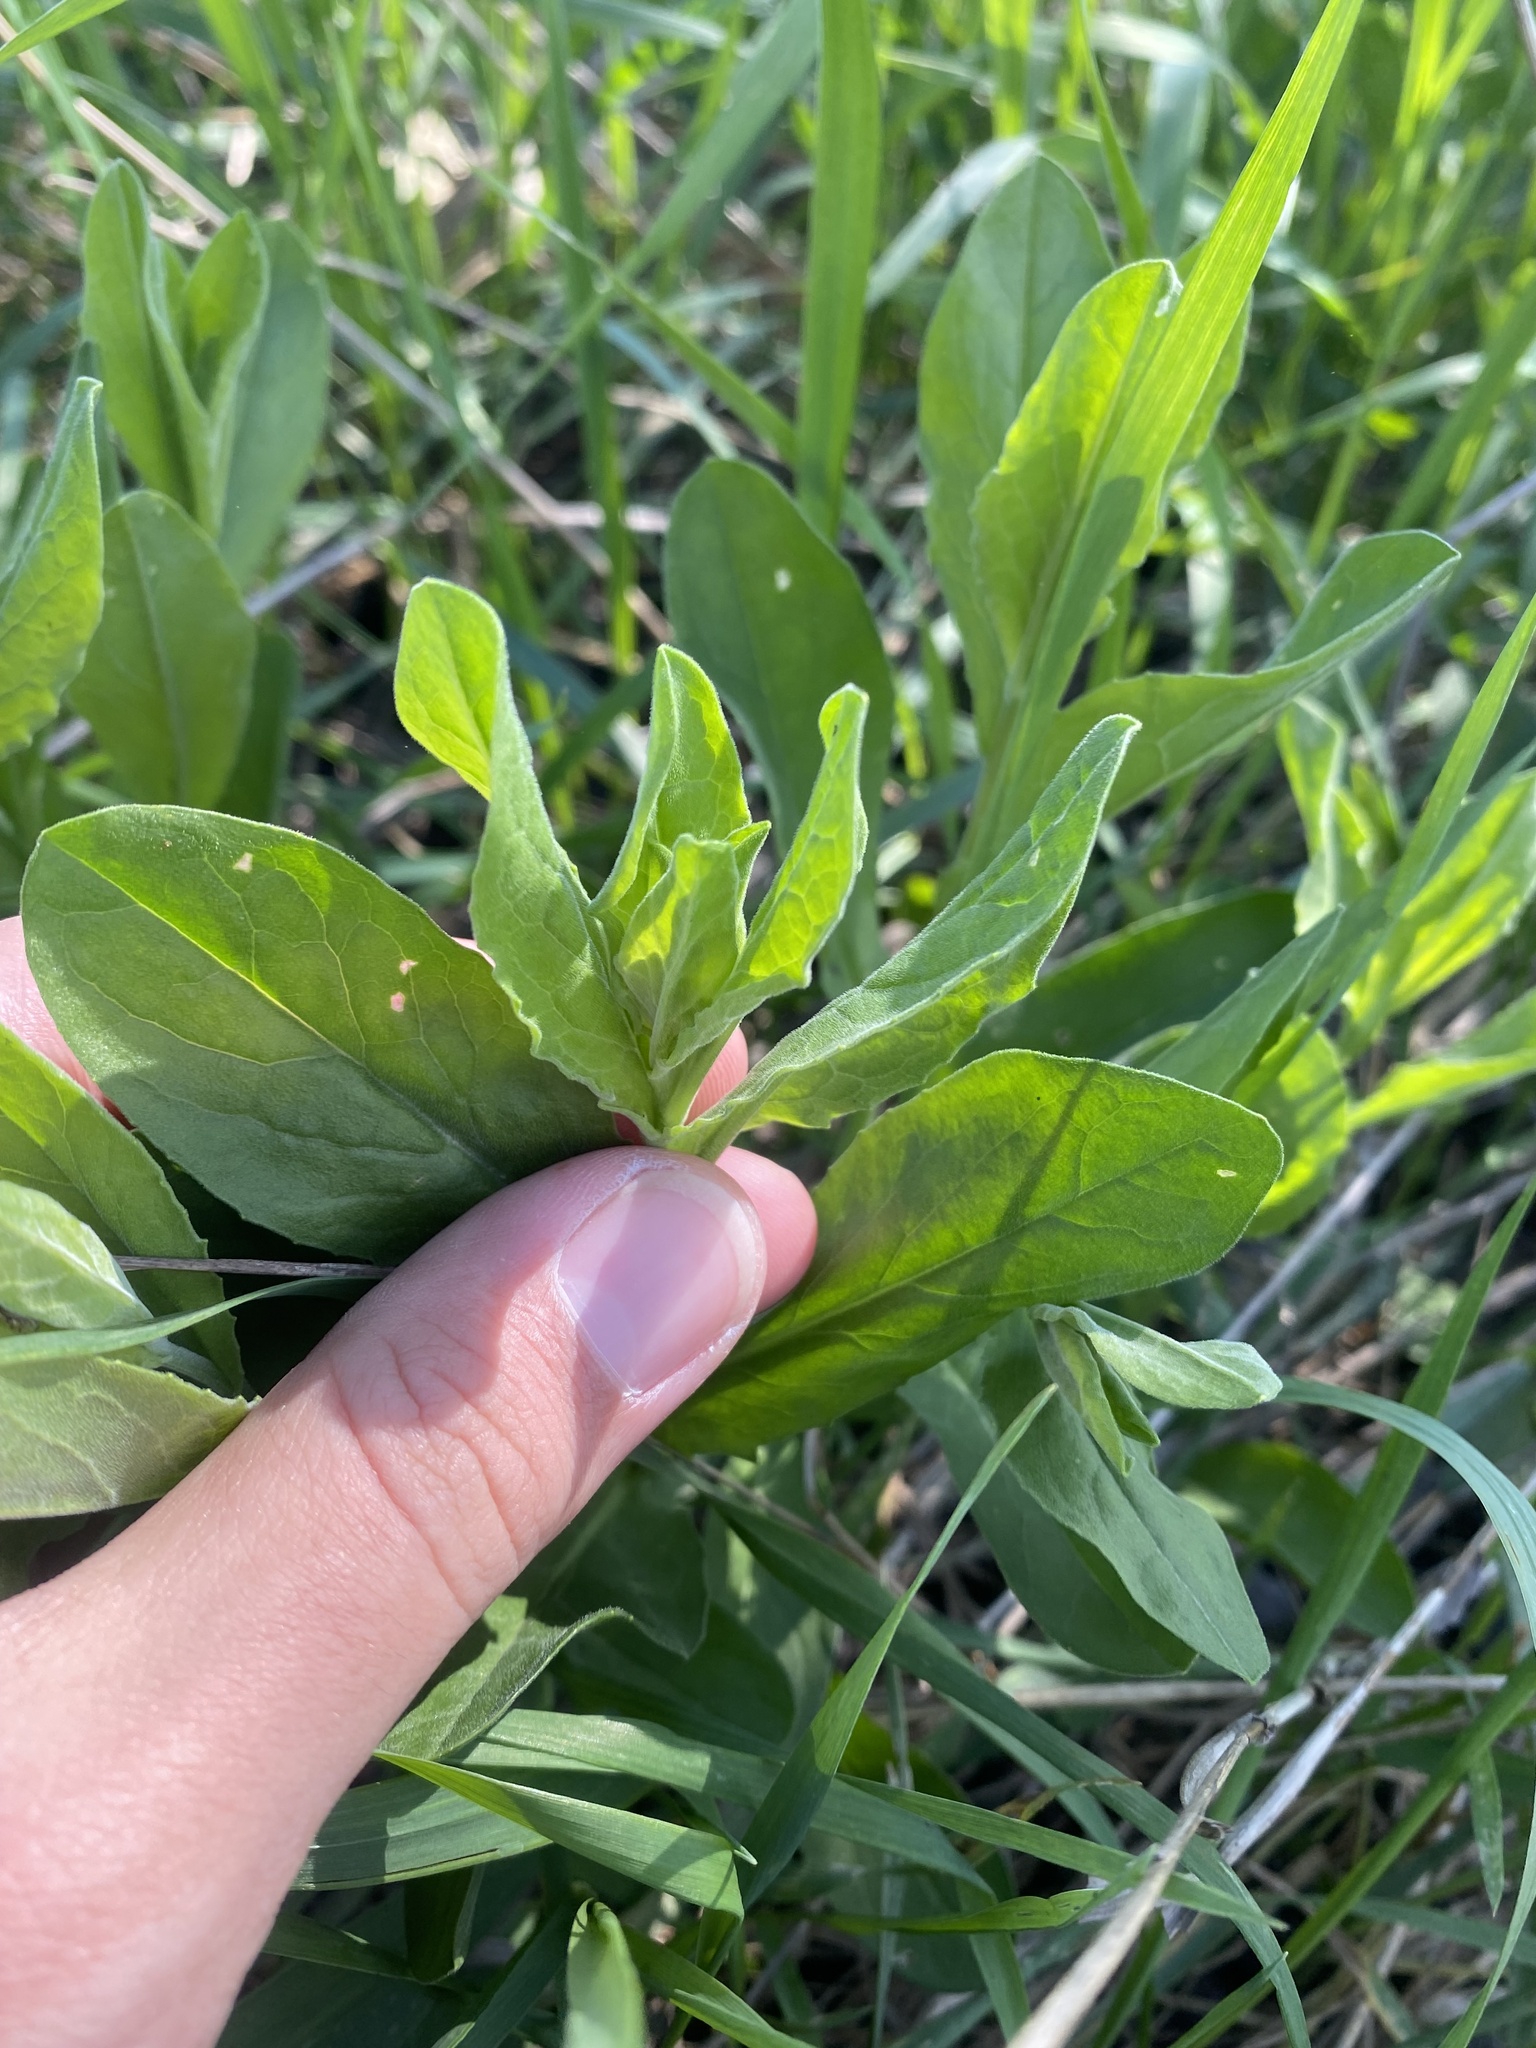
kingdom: Plantae
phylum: Tracheophyta
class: Magnoliopsida
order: Brassicales
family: Brassicaceae
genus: Lepidium
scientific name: Lepidium draba
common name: Hoary cress
